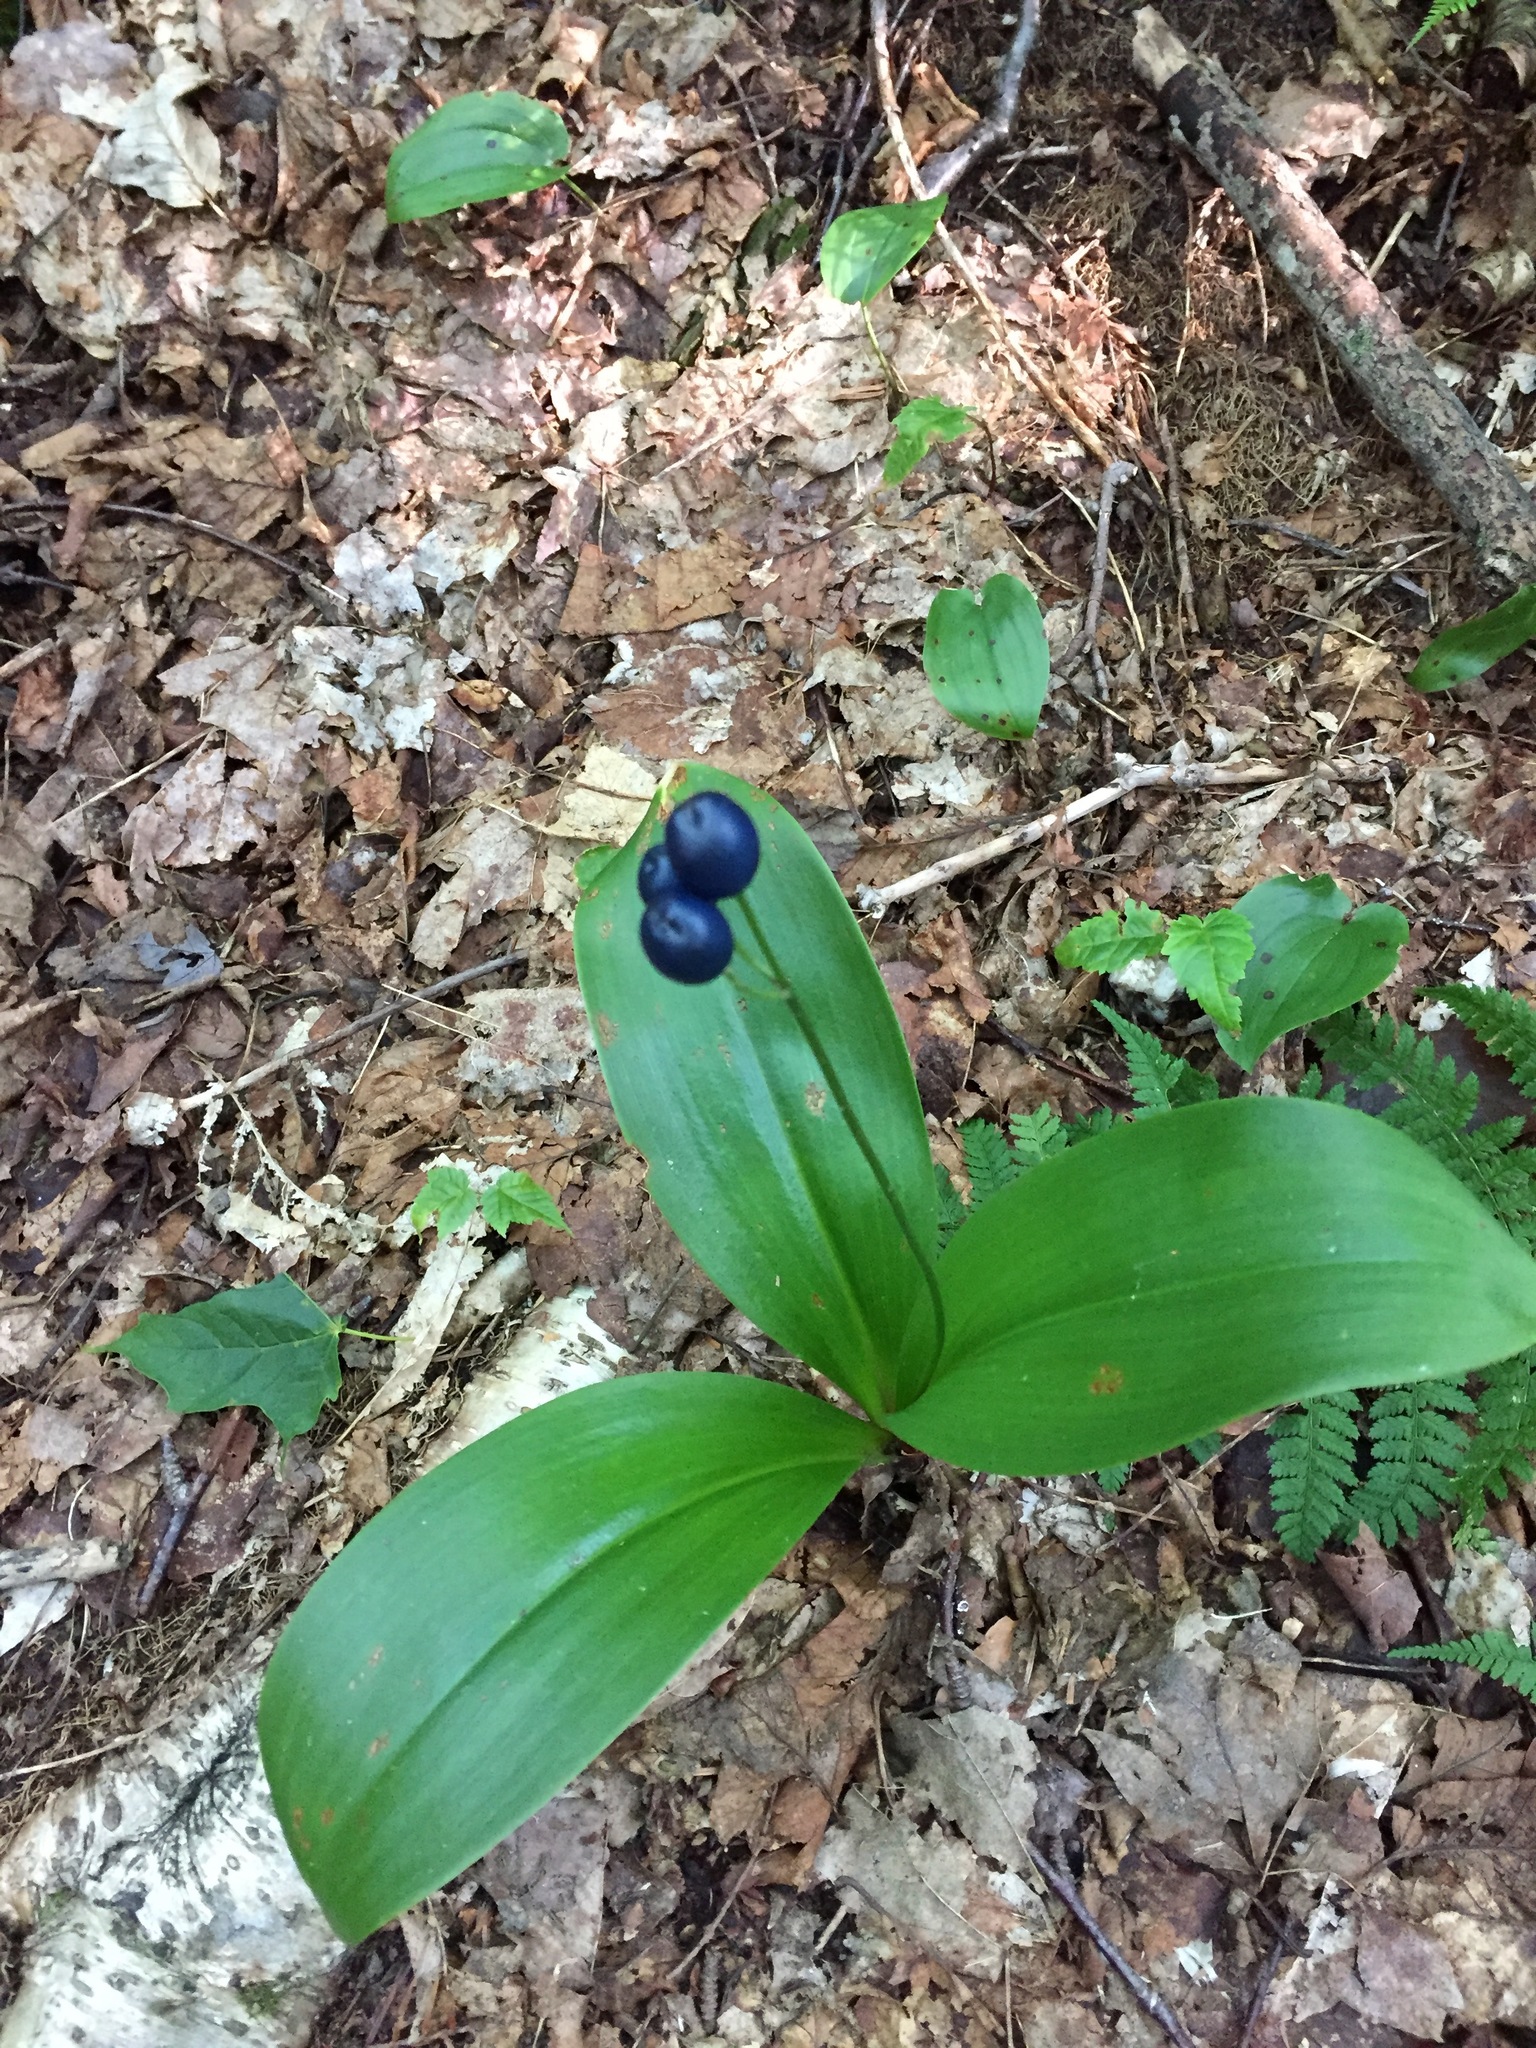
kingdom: Plantae
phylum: Tracheophyta
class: Liliopsida
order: Liliales
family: Liliaceae
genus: Clintonia
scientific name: Clintonia borealis
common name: Yellow clintonia
